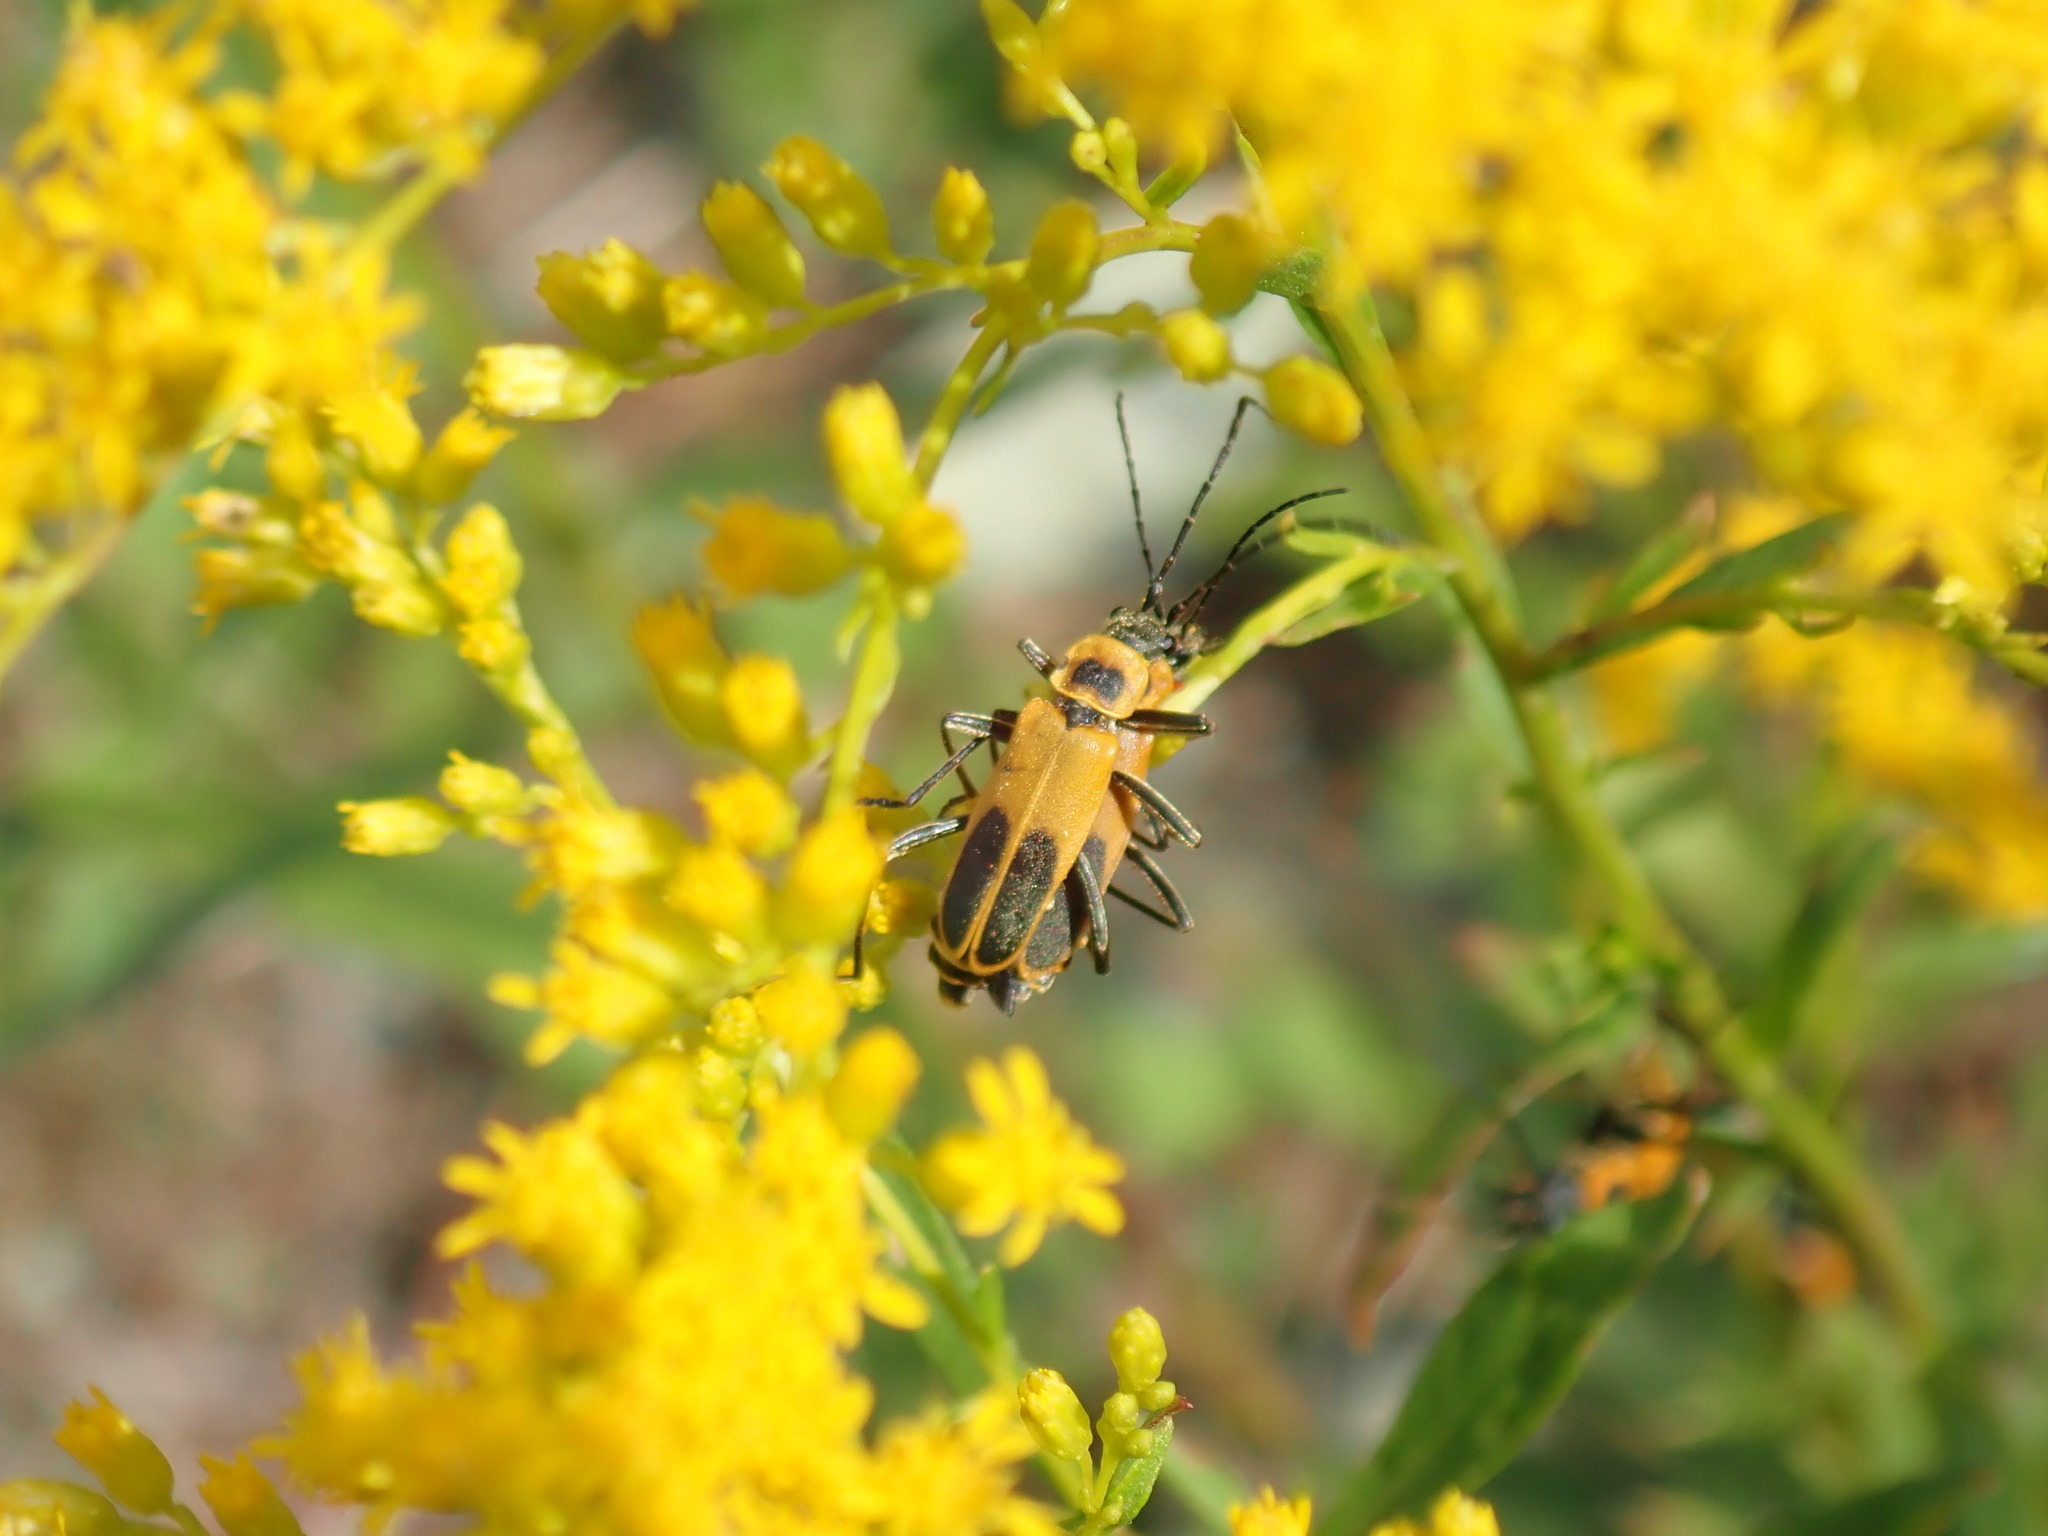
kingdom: Animalia
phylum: Arthropoda
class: Insecta
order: Coleoptera
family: Cantharidae
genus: Chauliognathus
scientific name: Chauliognathus pensylvanicus
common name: Goldenrod soldier beetle
